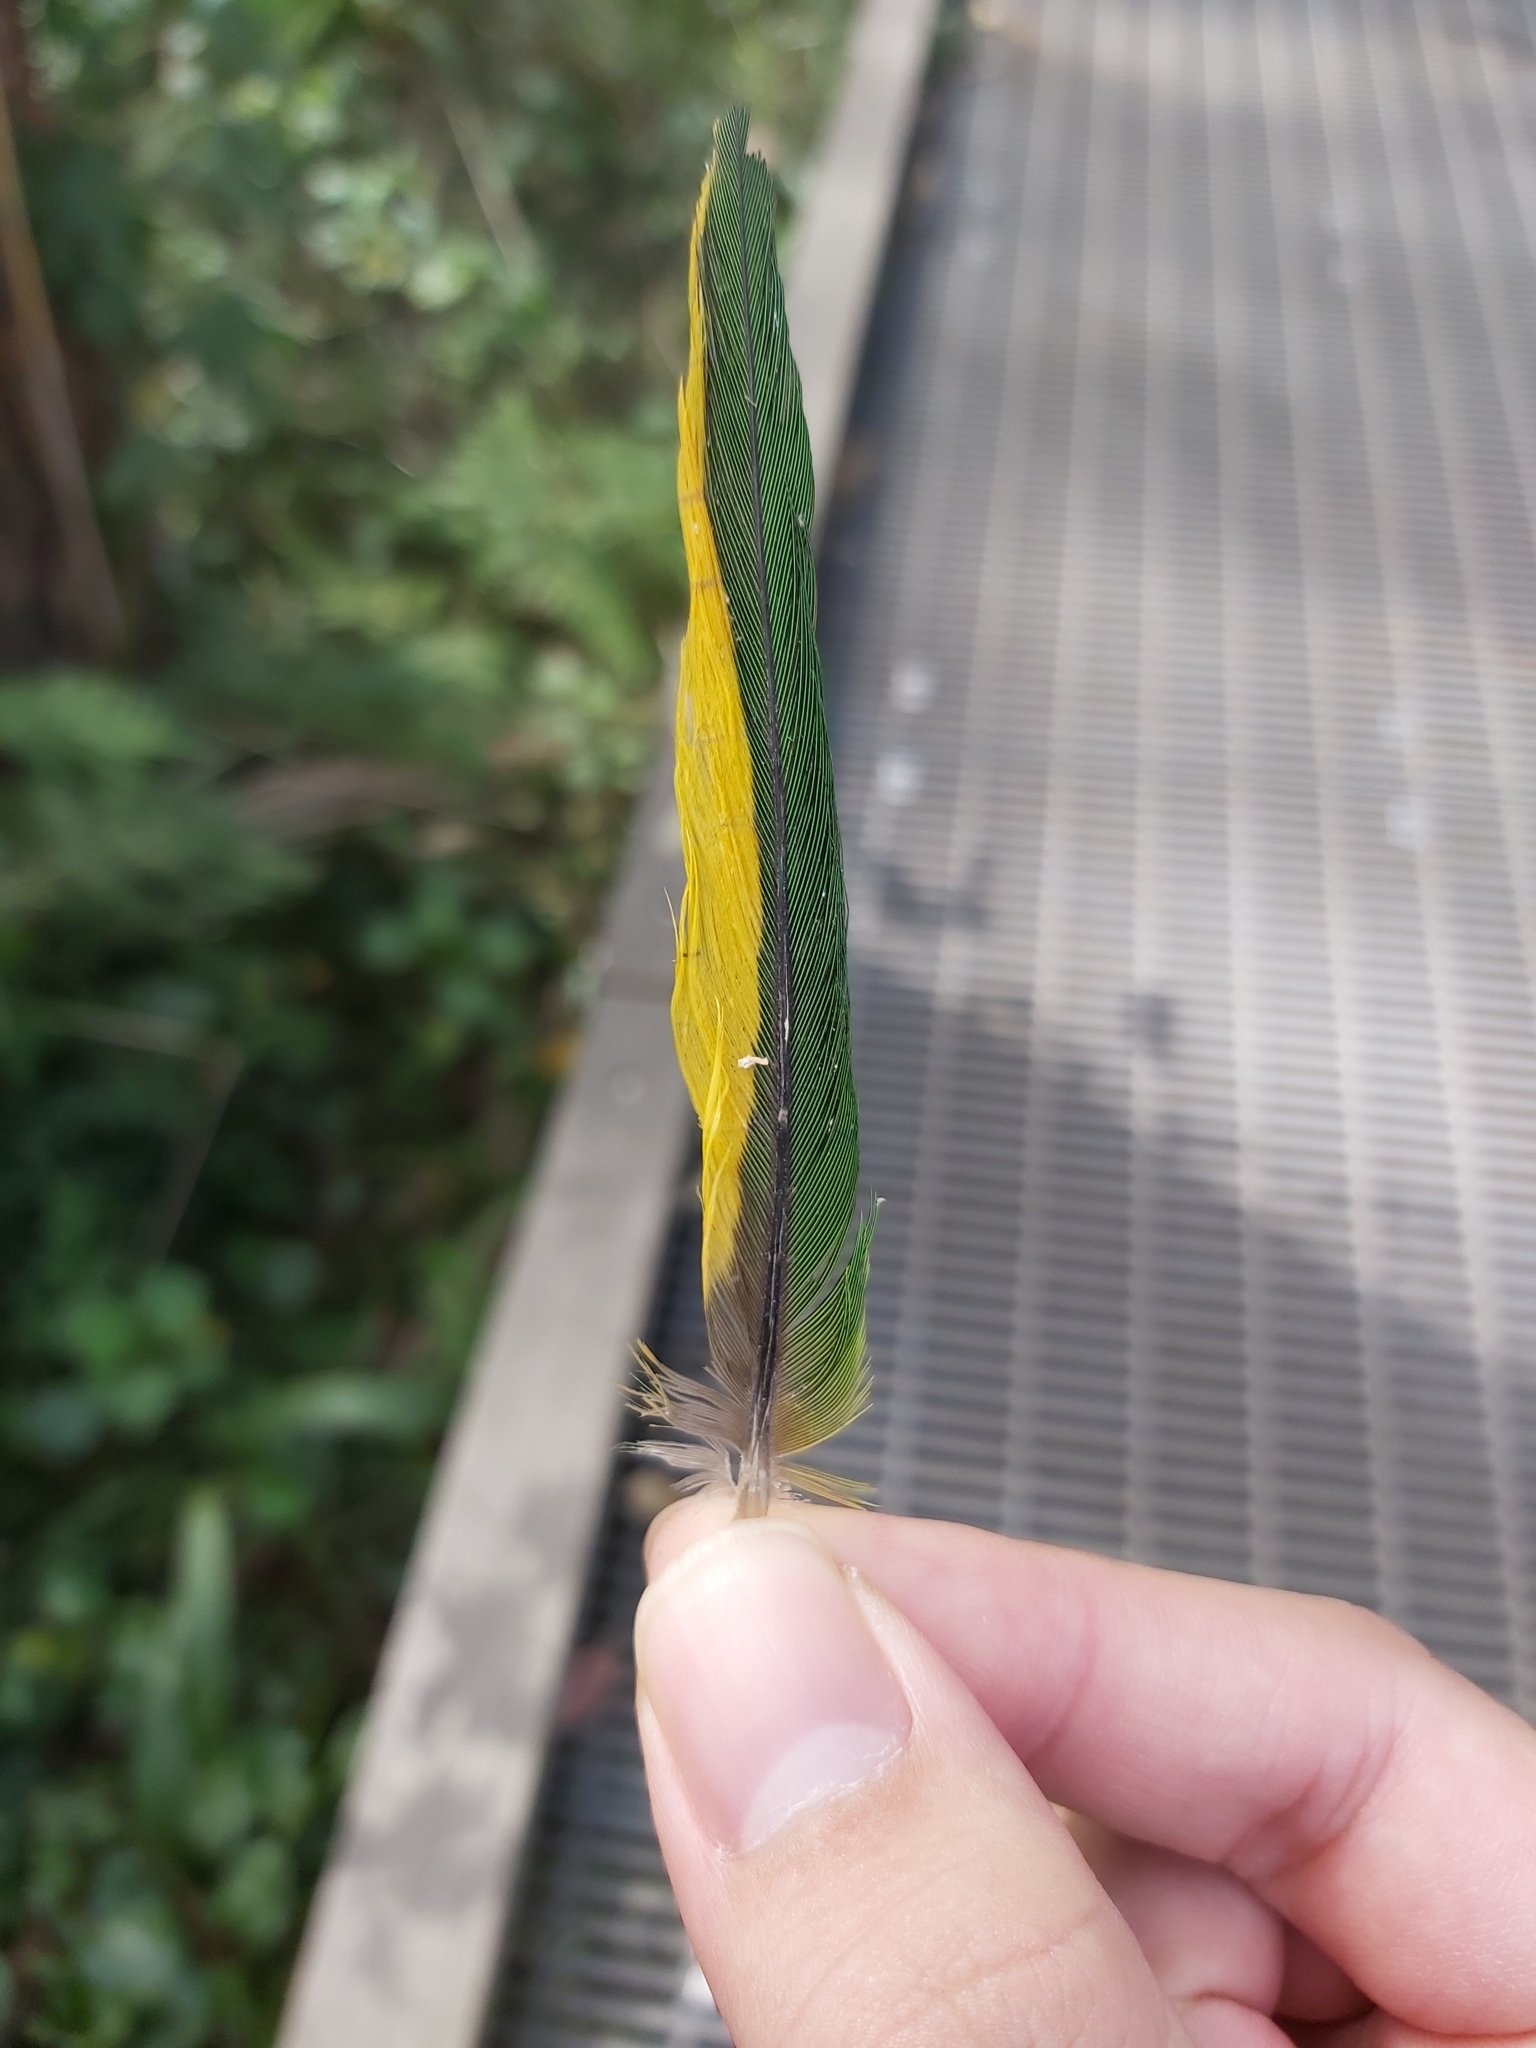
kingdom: Animalia
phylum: Chordata
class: Aves
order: Psittaciformes
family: Psittacidae
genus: Trichoglossus
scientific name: Trichoglossus haematodus
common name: Coconut lorikeet
